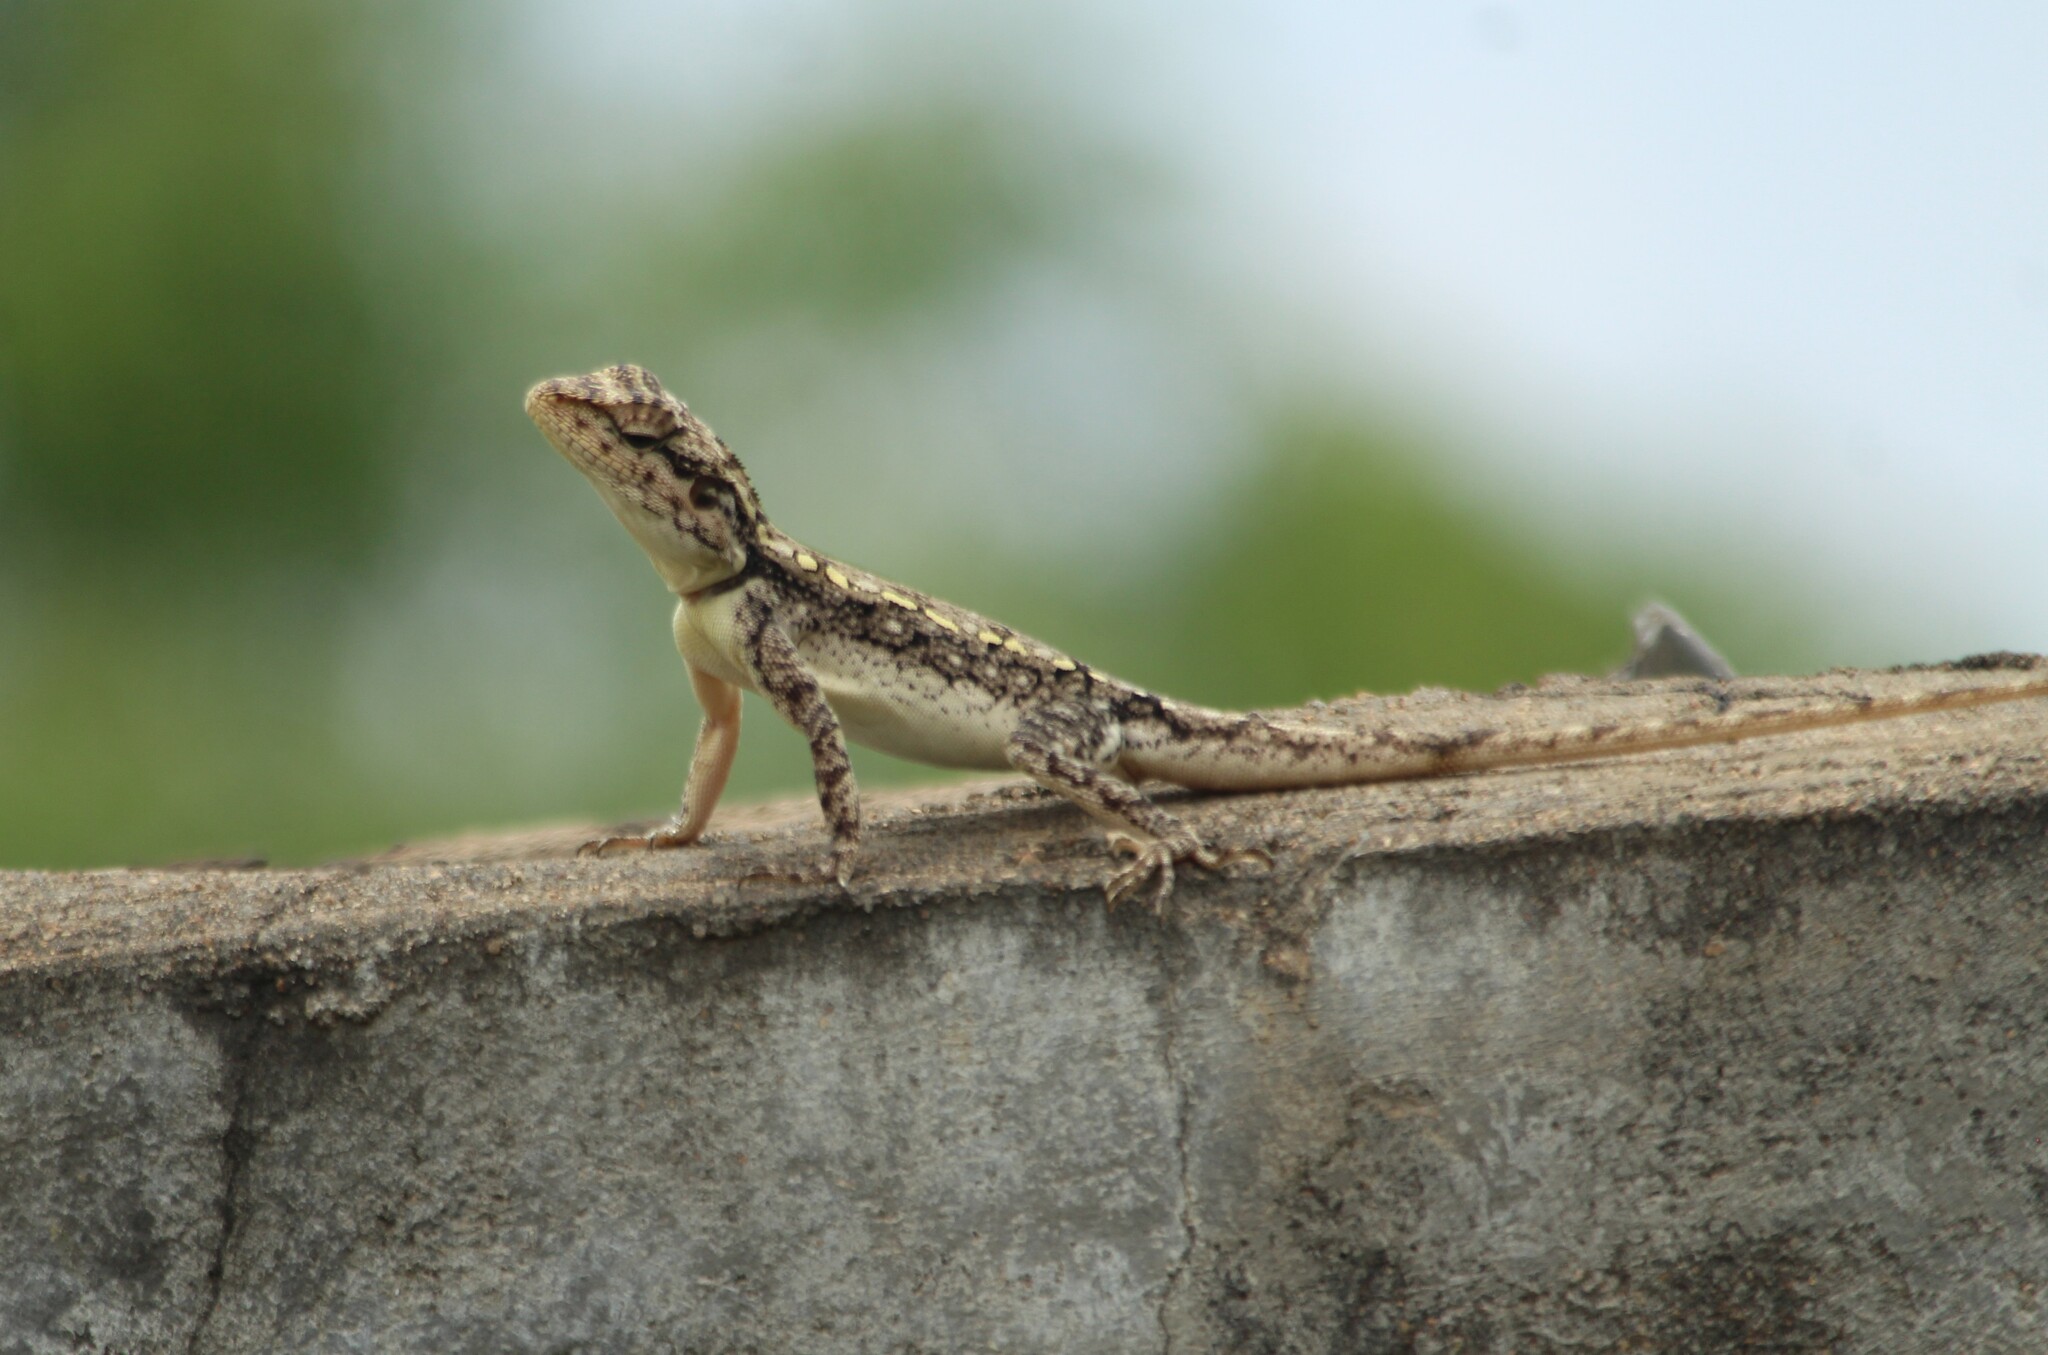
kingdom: Animalia
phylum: Chordata
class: Squamata
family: Agamidae
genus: Psammophilus
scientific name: Psammophilus
